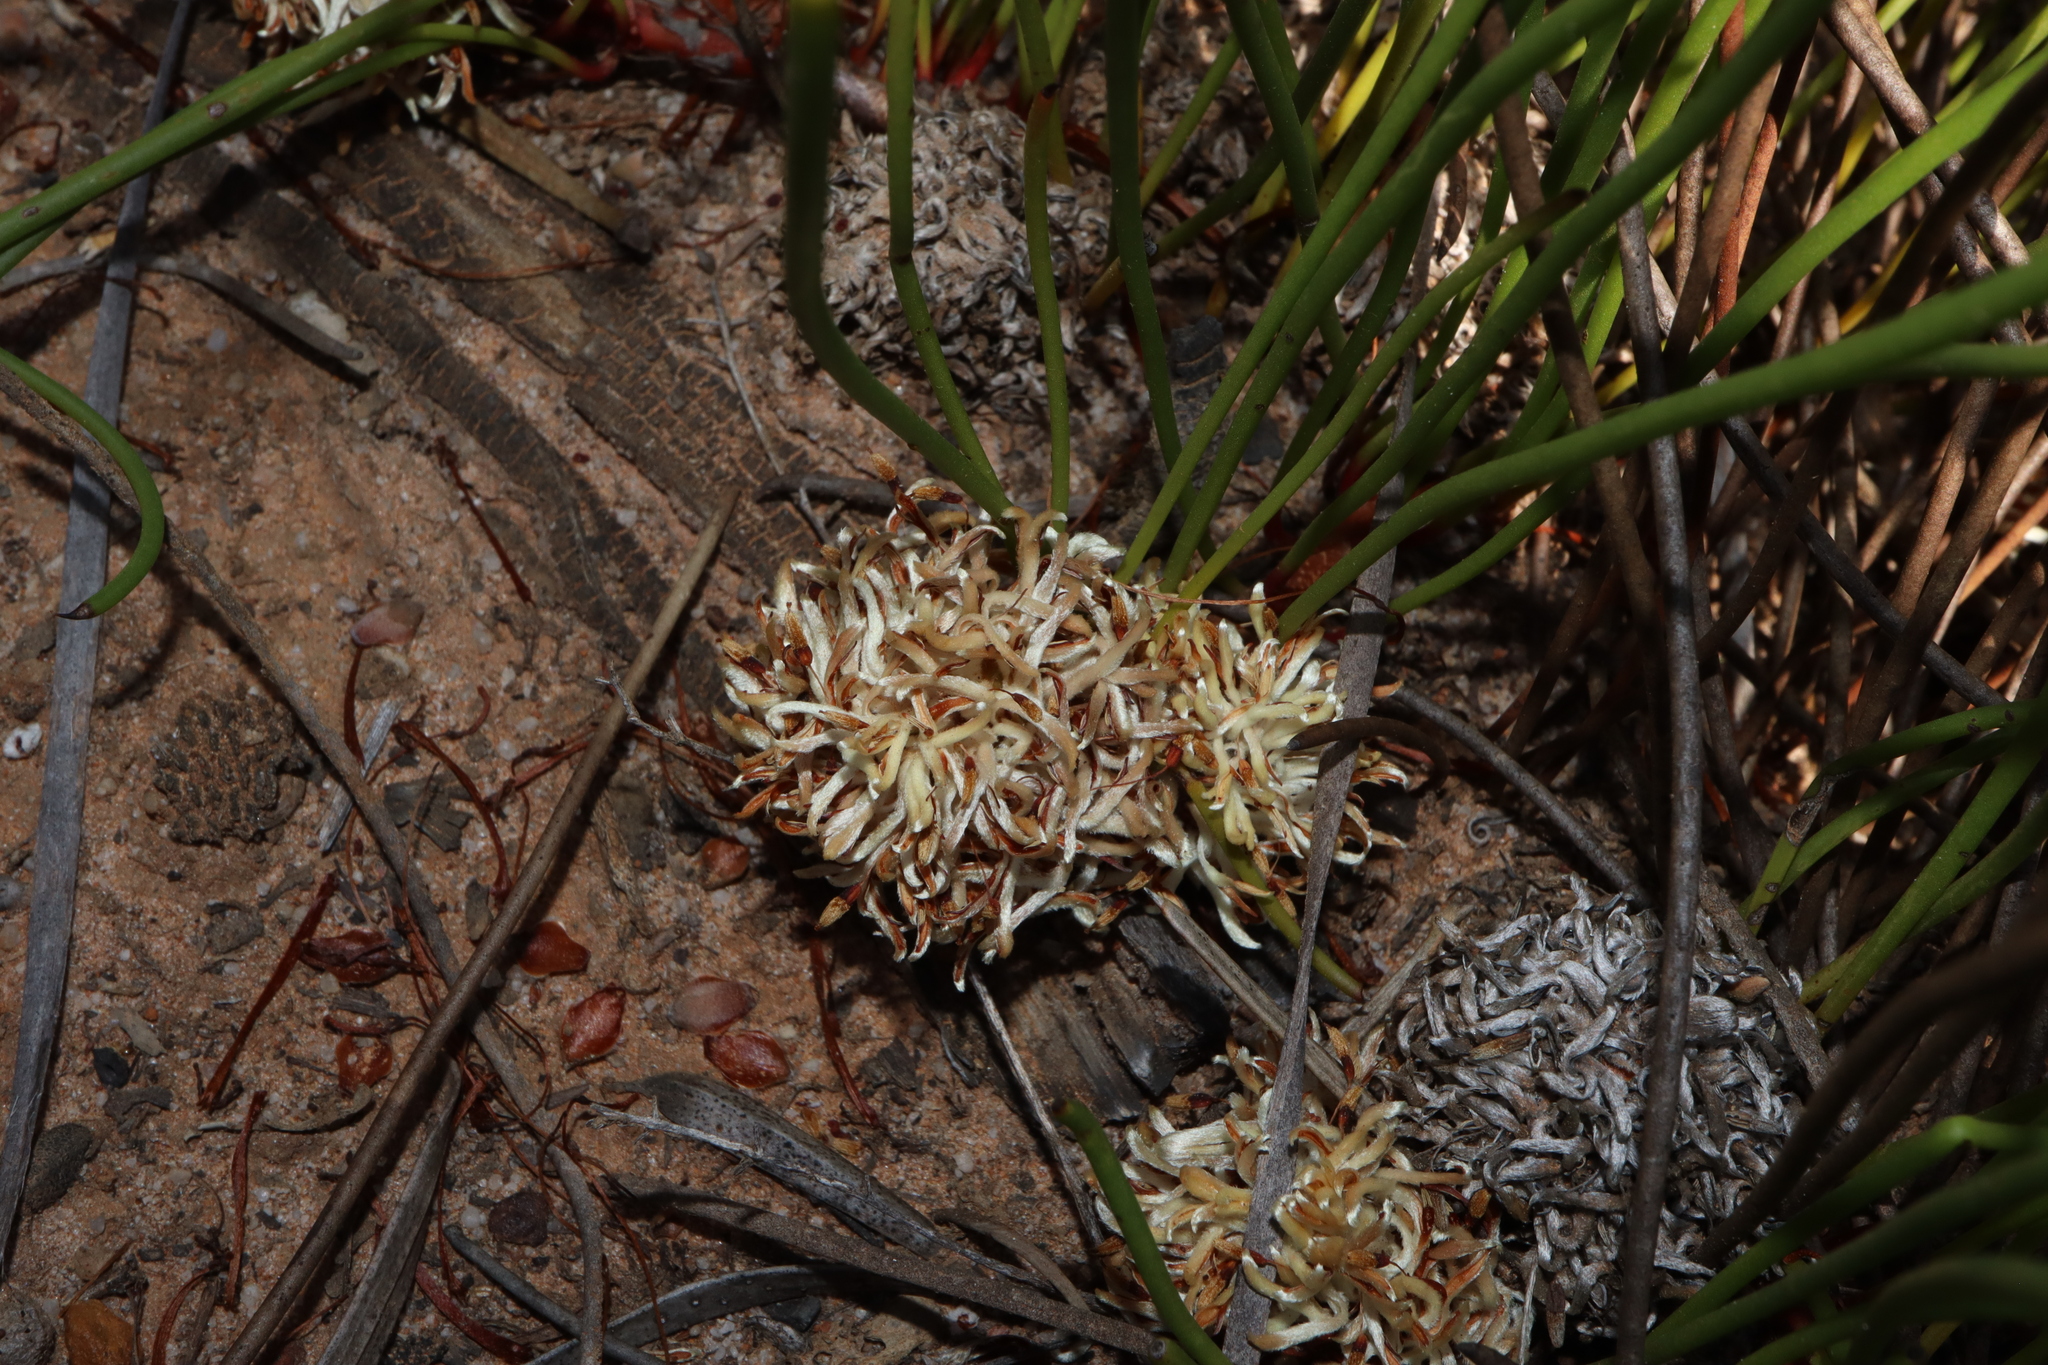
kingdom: Plantae
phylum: Tracheophyta
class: Magnoliopsida
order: Proteales
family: Proteaceae
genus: Petrophile
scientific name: Petrophile prostrata
